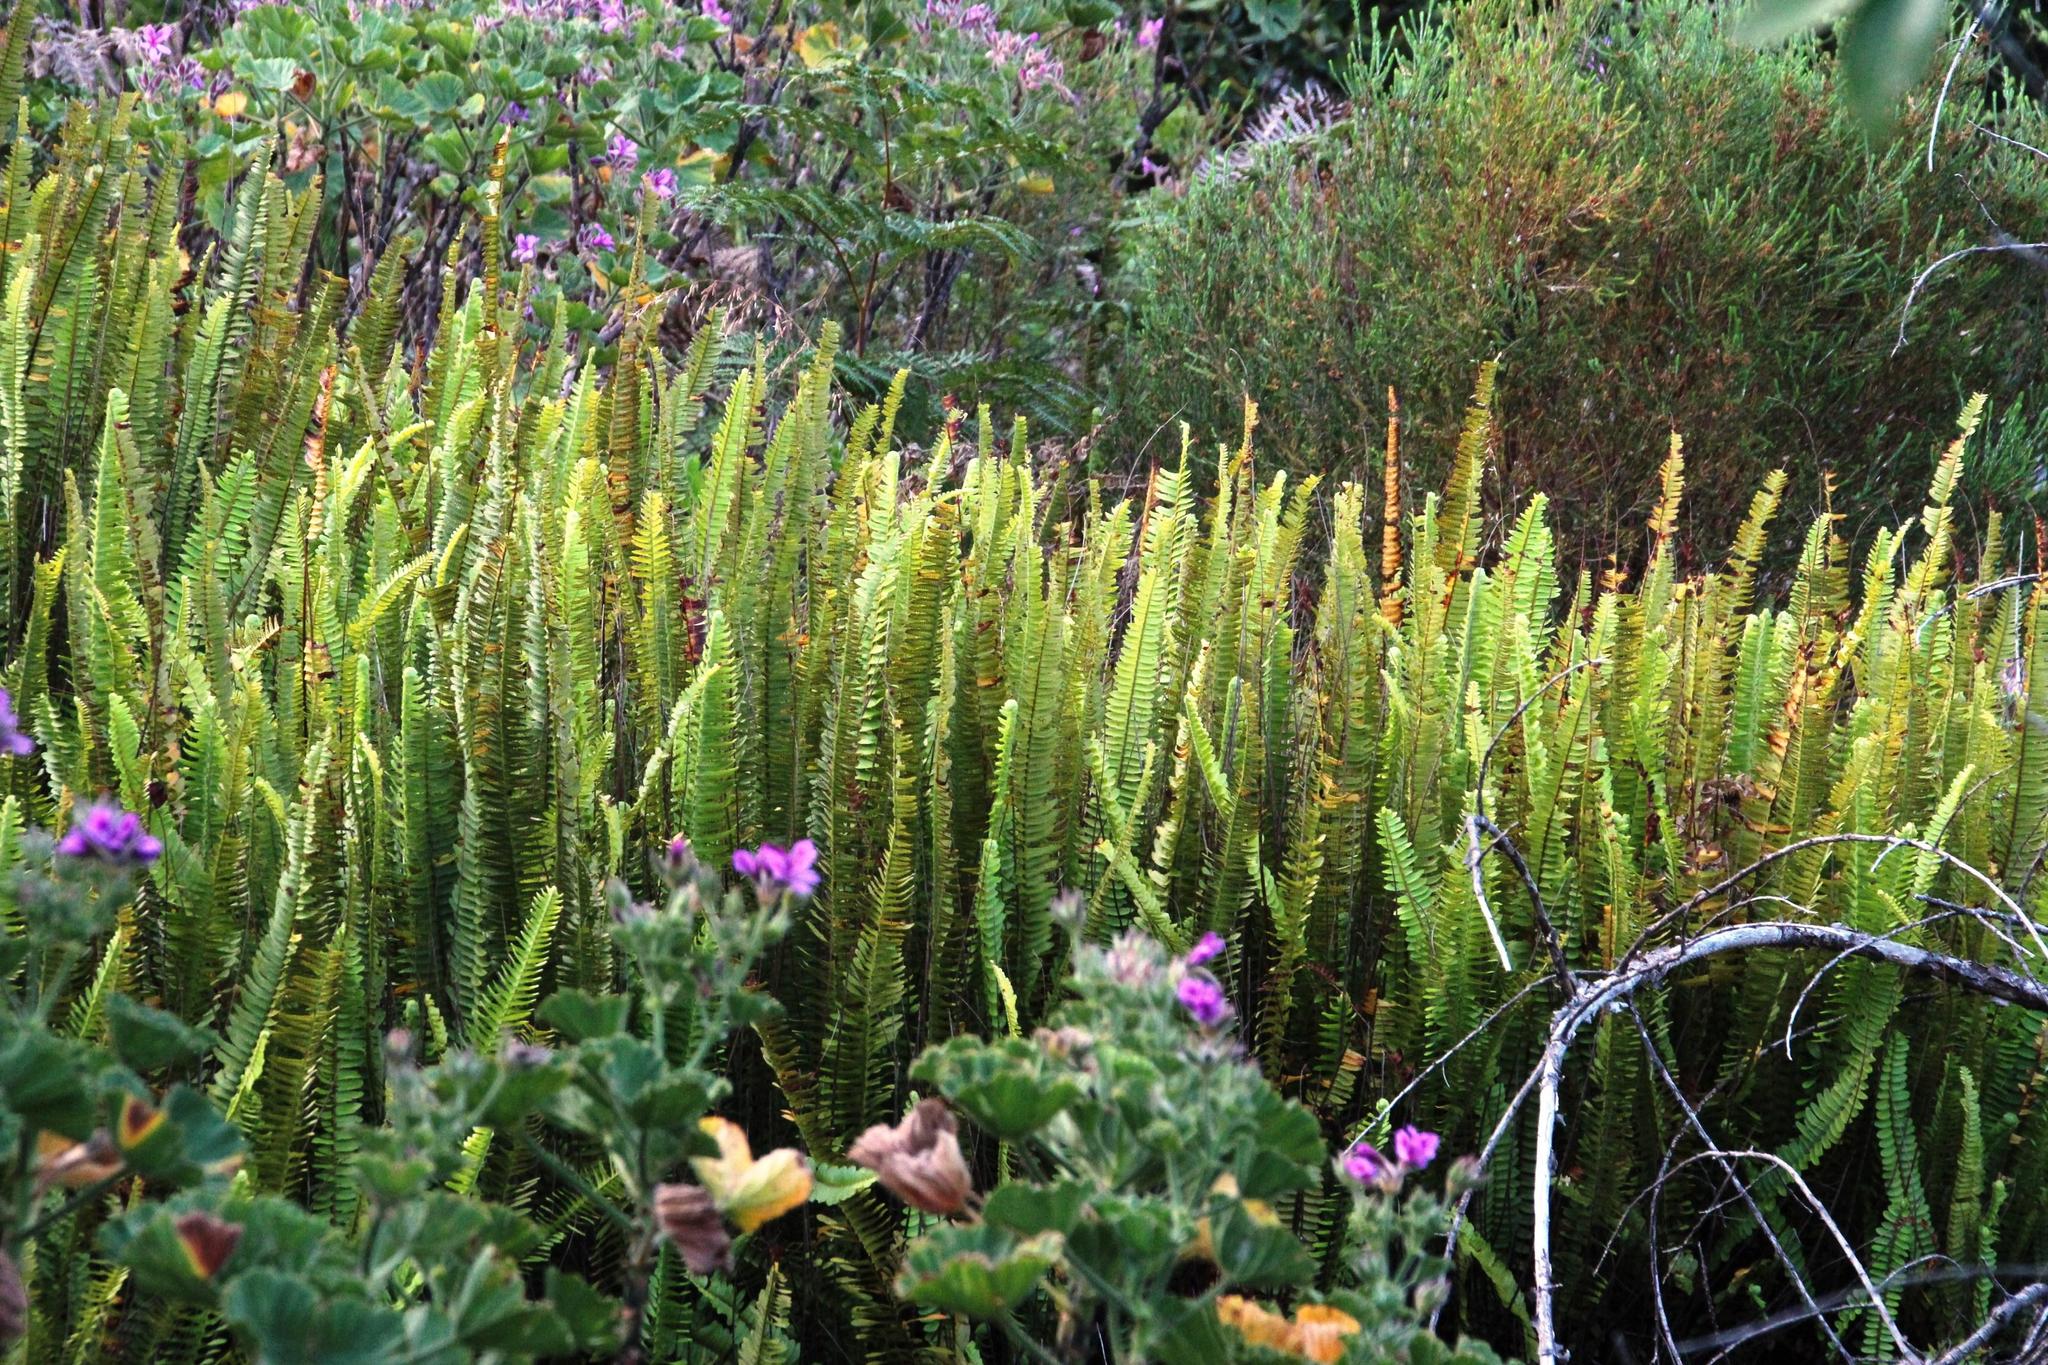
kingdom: Plantae
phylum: Tracheophyta
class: Polypodiopsida
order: Polypodiales
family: Nephrolepidaceae
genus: Nephrolepis
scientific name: Nephrolepis cordifolia
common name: Narrow swordfern
